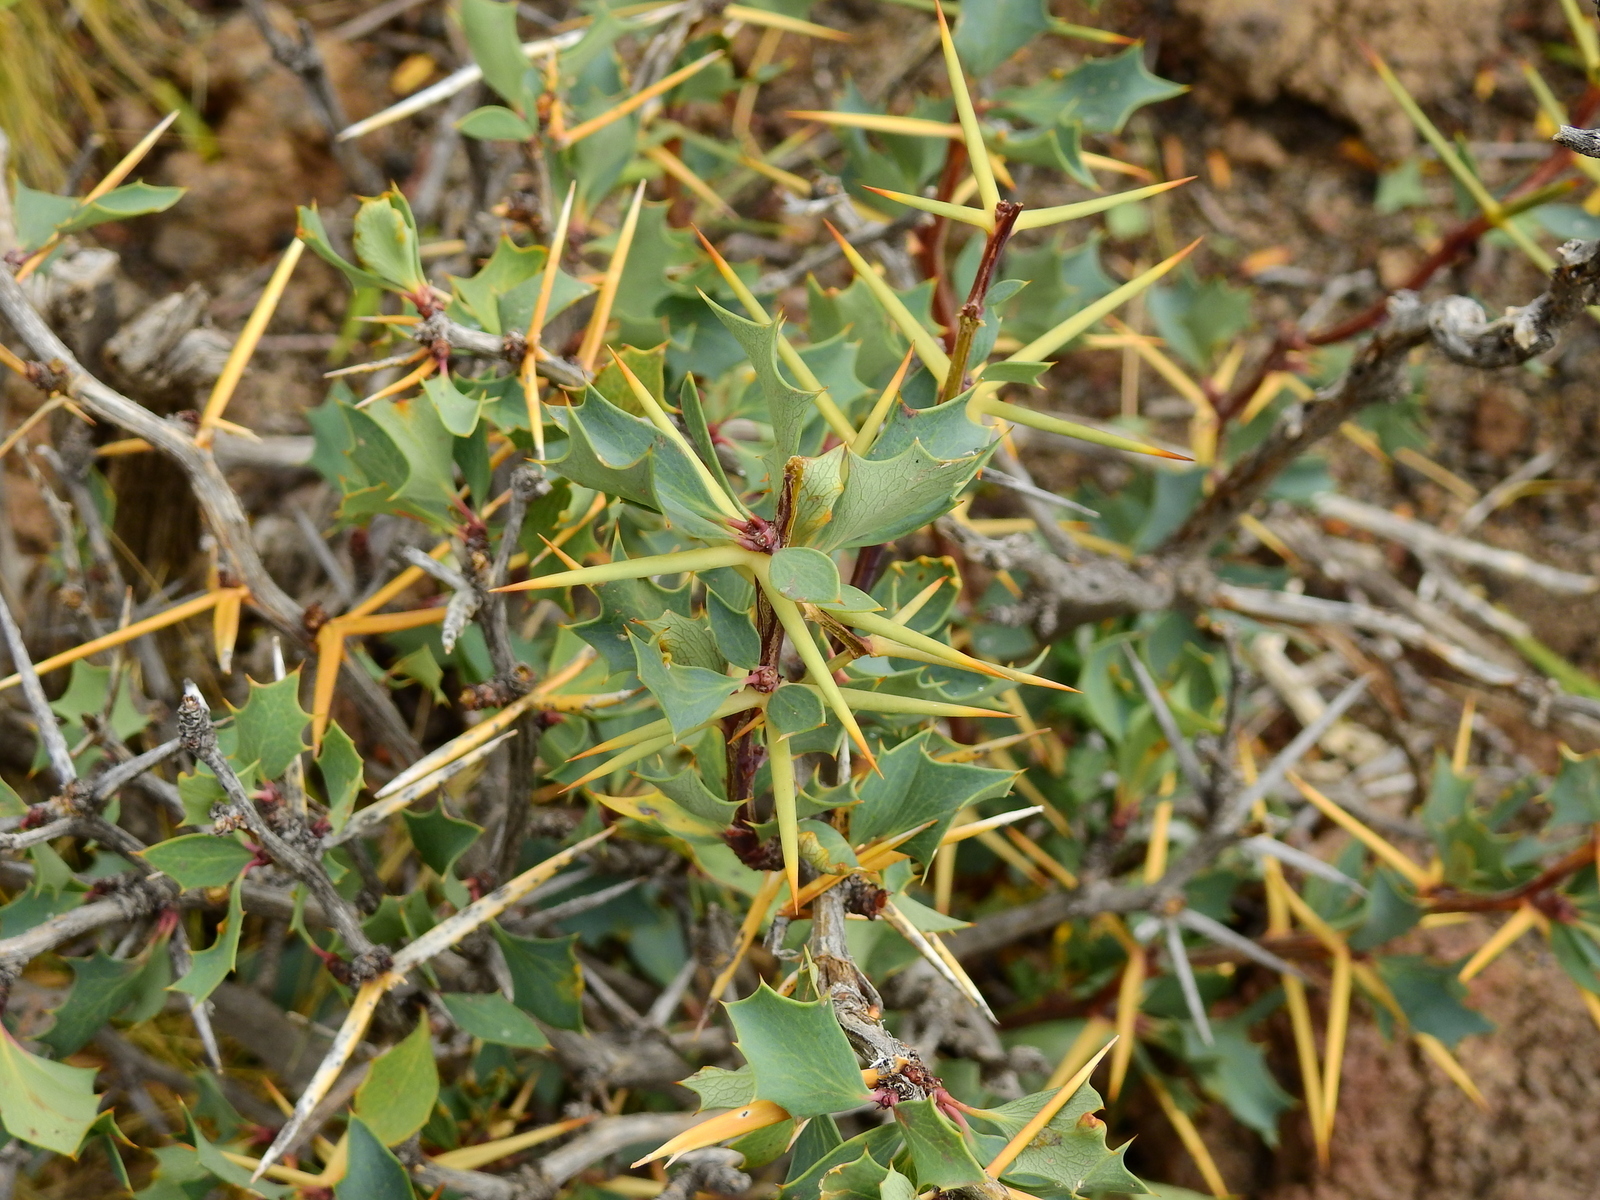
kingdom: Plantae
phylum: Tracheophyta
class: Magnoliopsida
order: Ranunculales
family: Berberidaceae
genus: Berberis
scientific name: Berberis grevilleana
